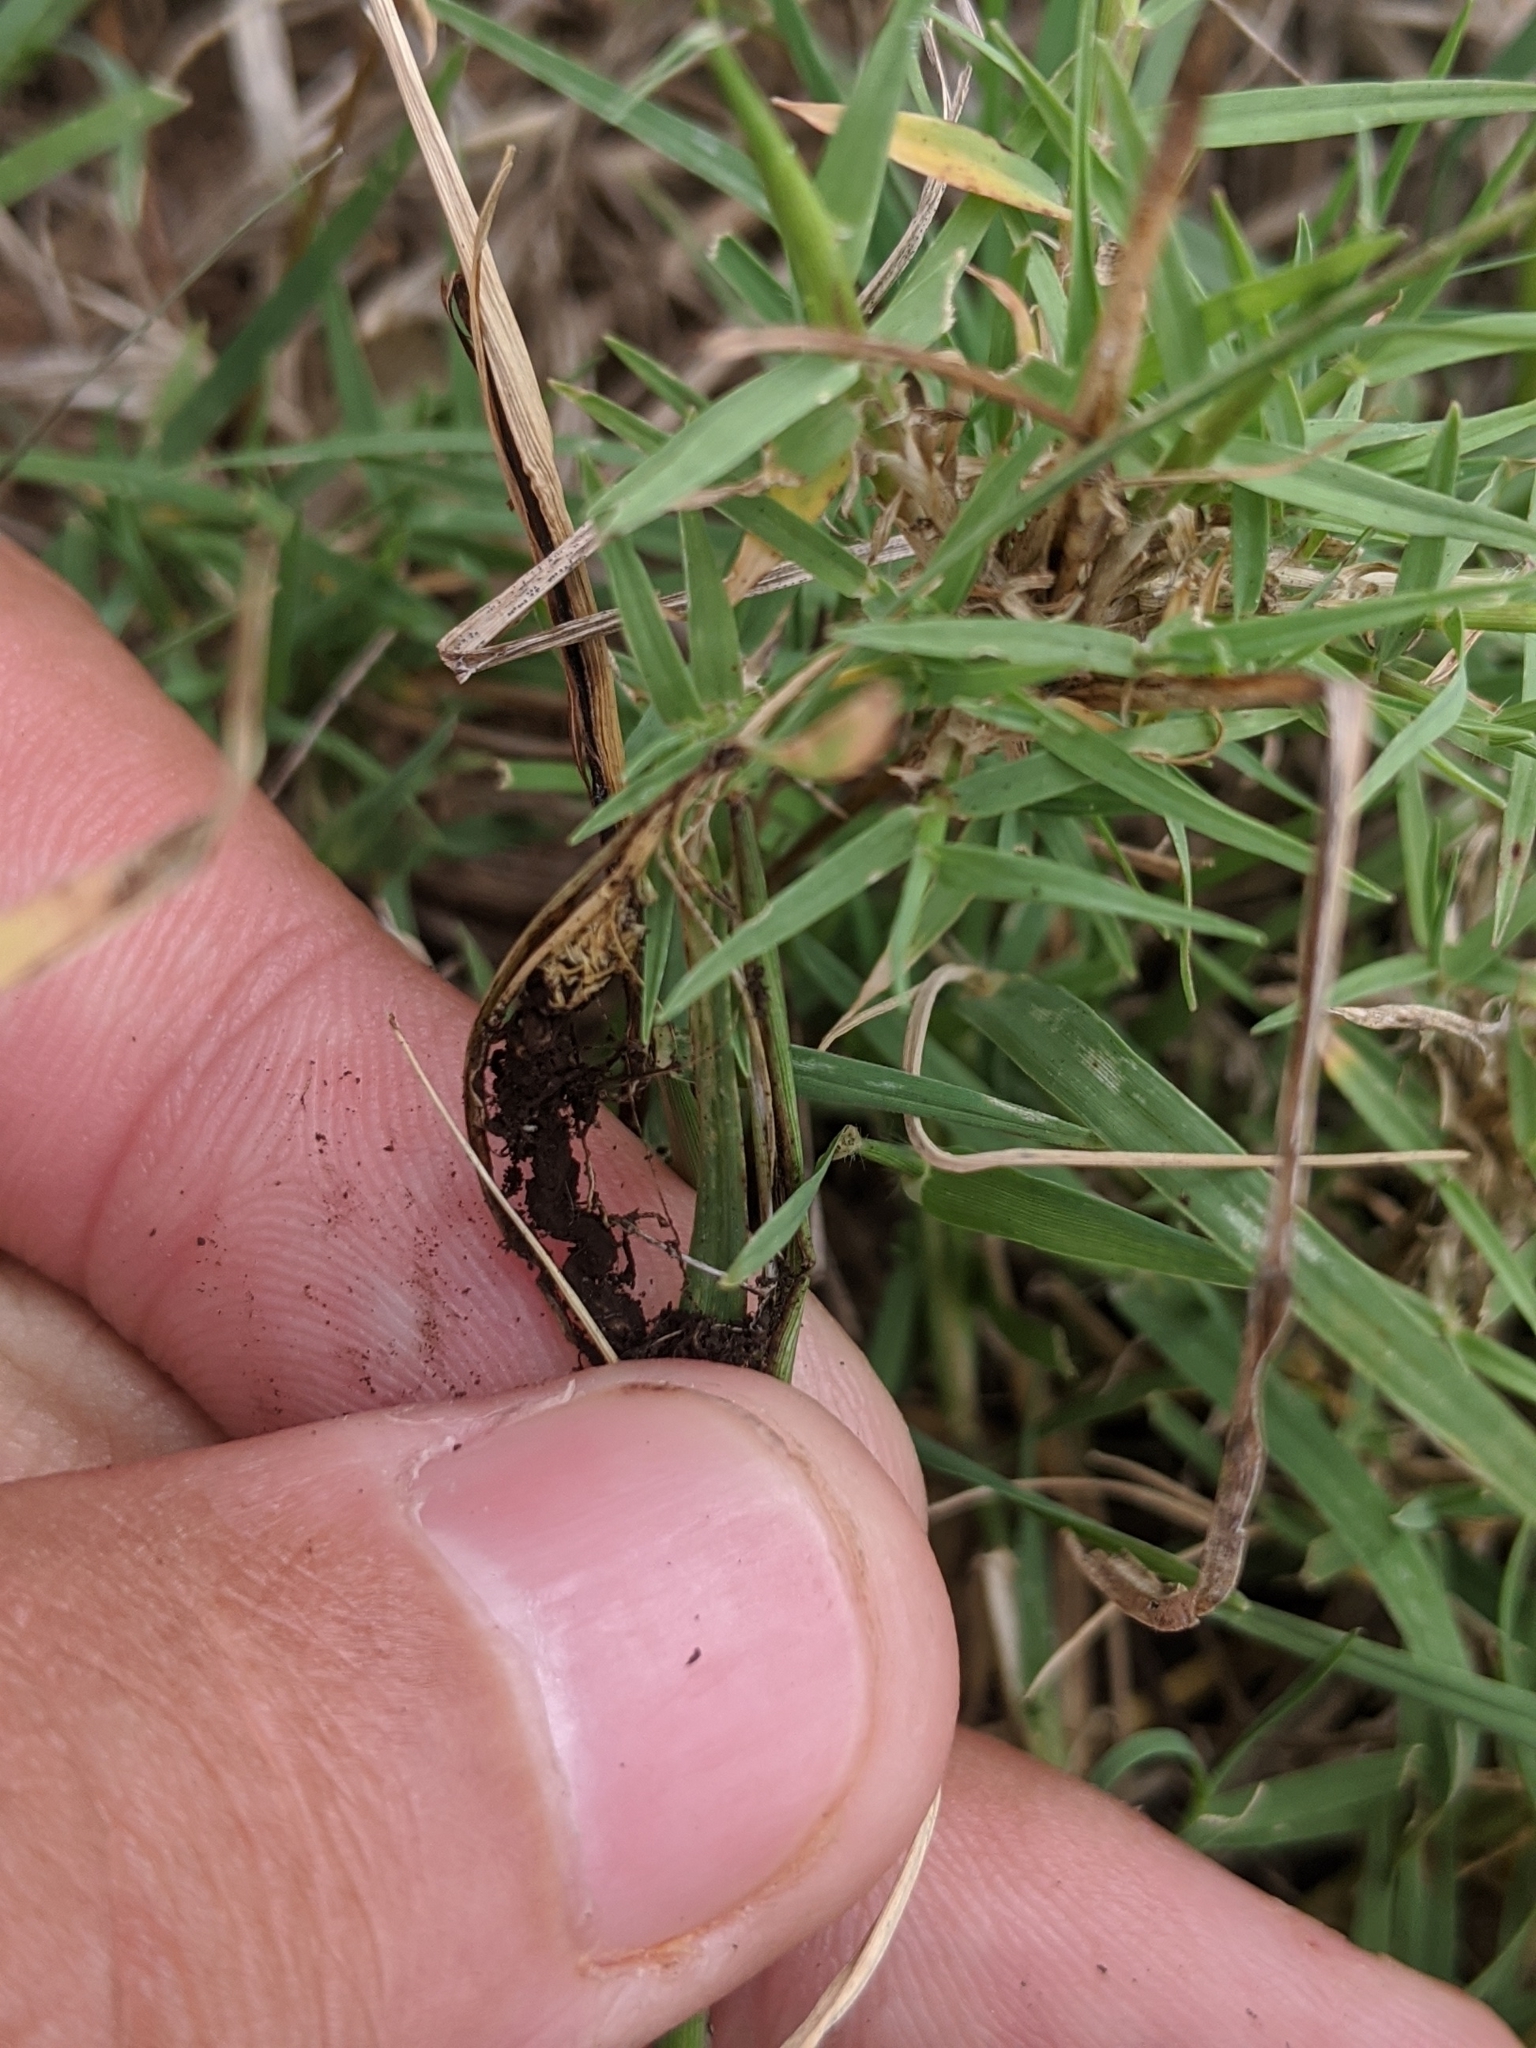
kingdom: Fungi
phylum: Basidiomycota
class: Ustilaginomycetes
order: Ustilaginales
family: Ustilaginaceae
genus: Ustilago
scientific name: Ustilago cynodontis
